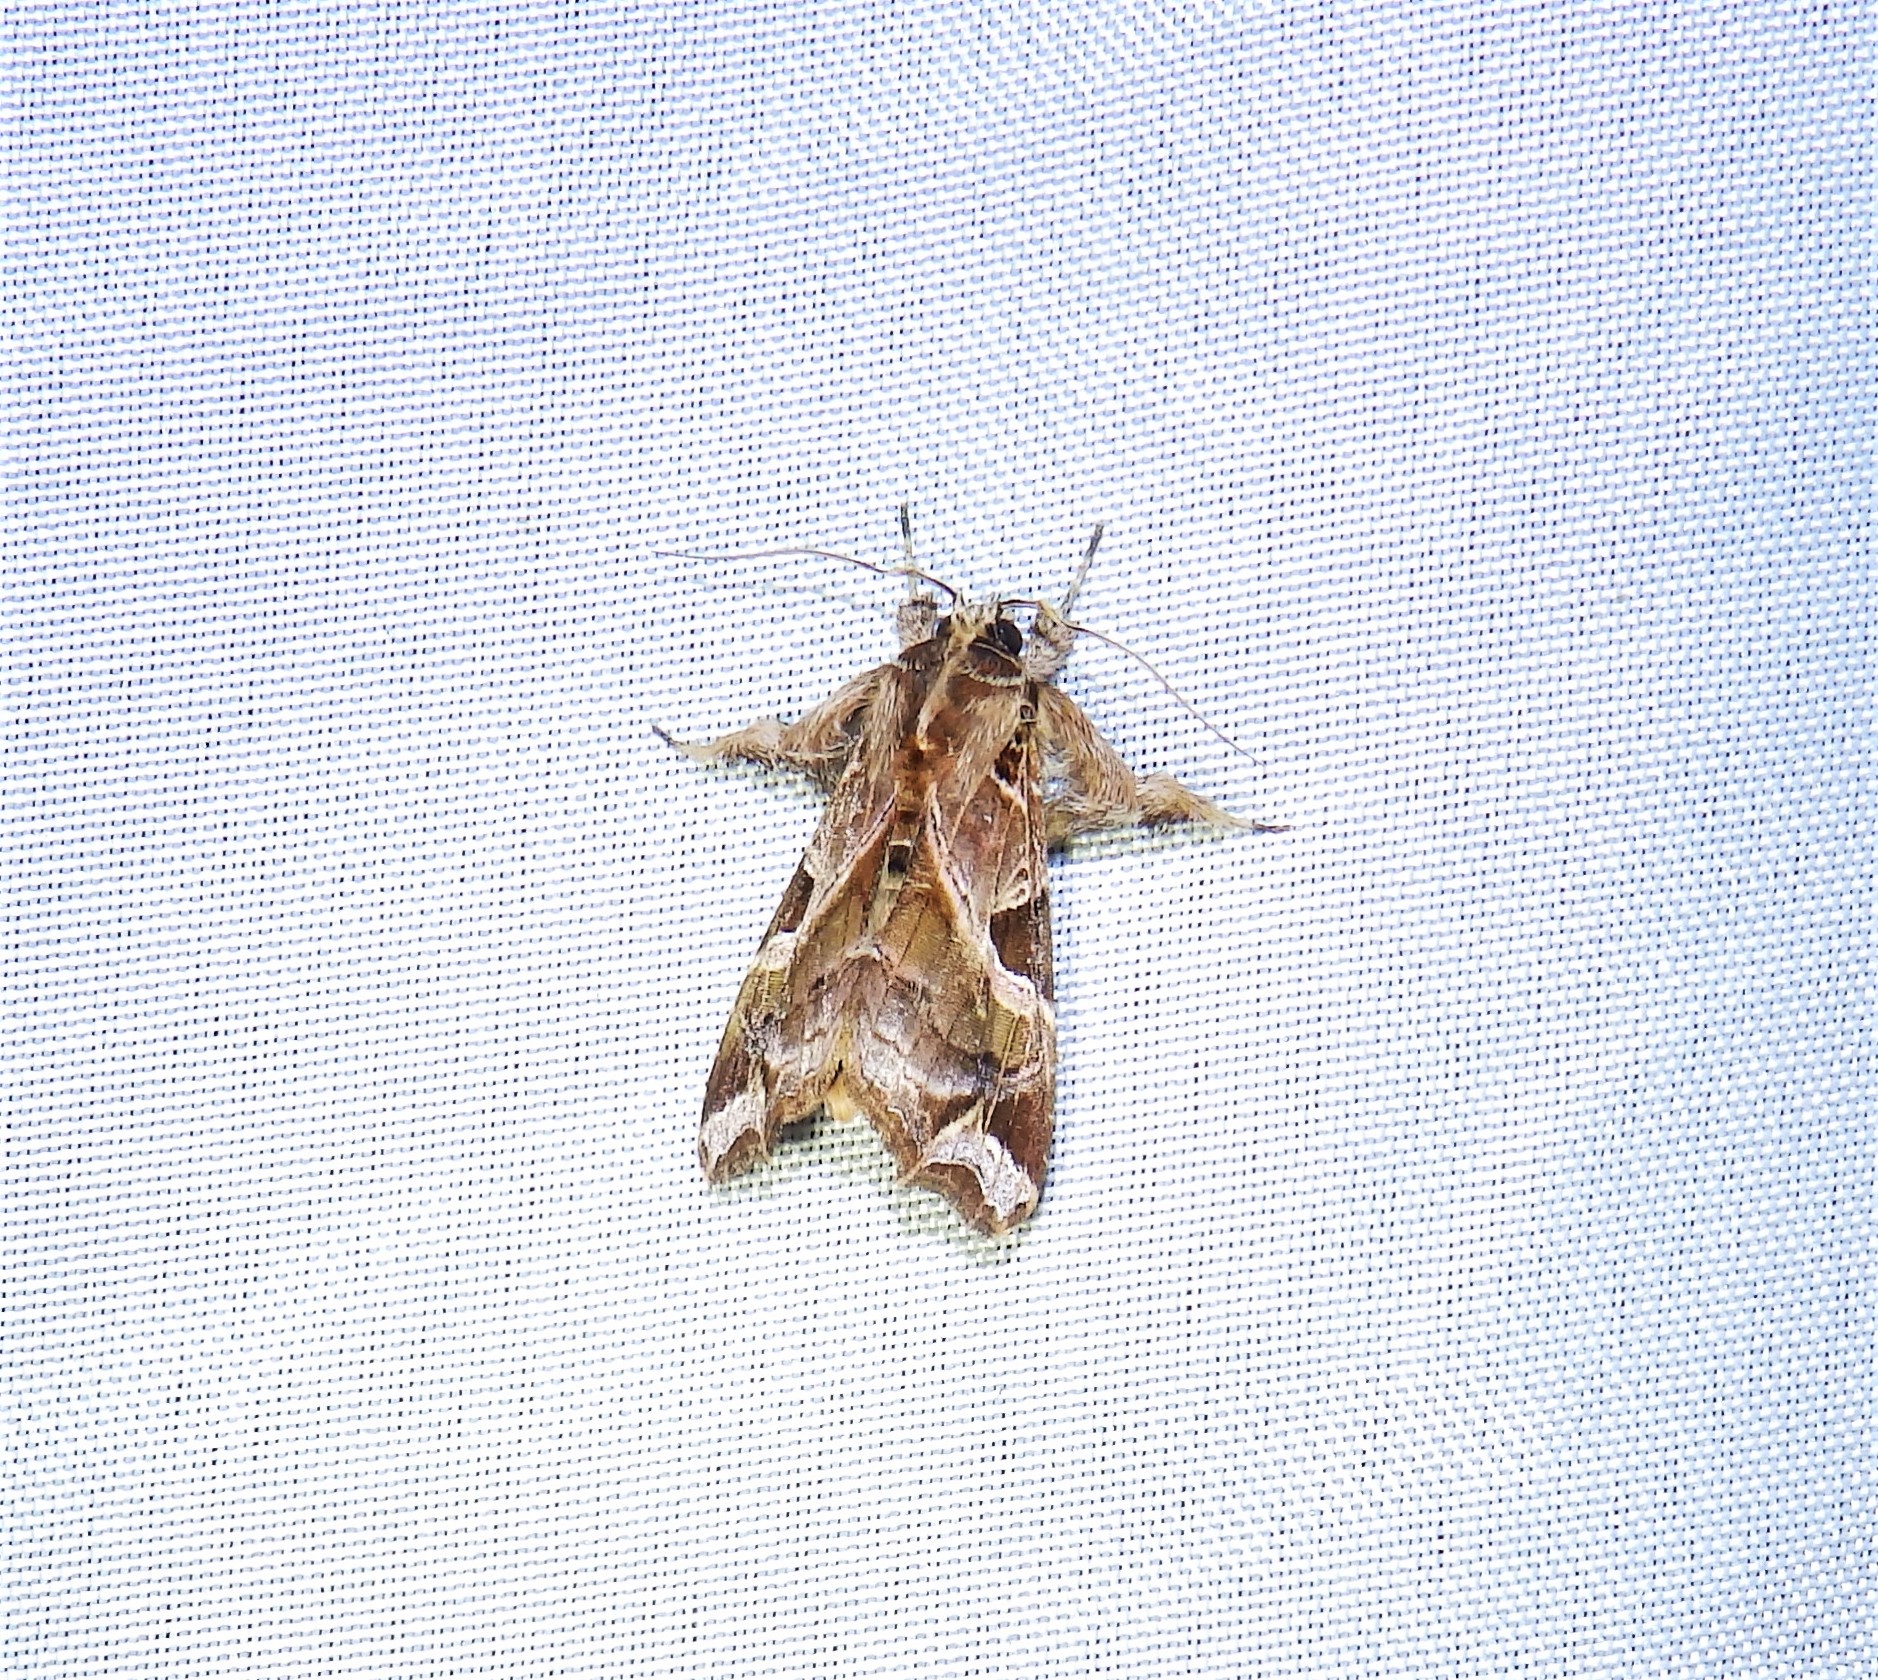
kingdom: Animalia
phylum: Arthropoda
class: Insecta
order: Lepidoptera
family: Noctuidae
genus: Callopistria
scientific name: Callopistria floridensis
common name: Florida fern moth
